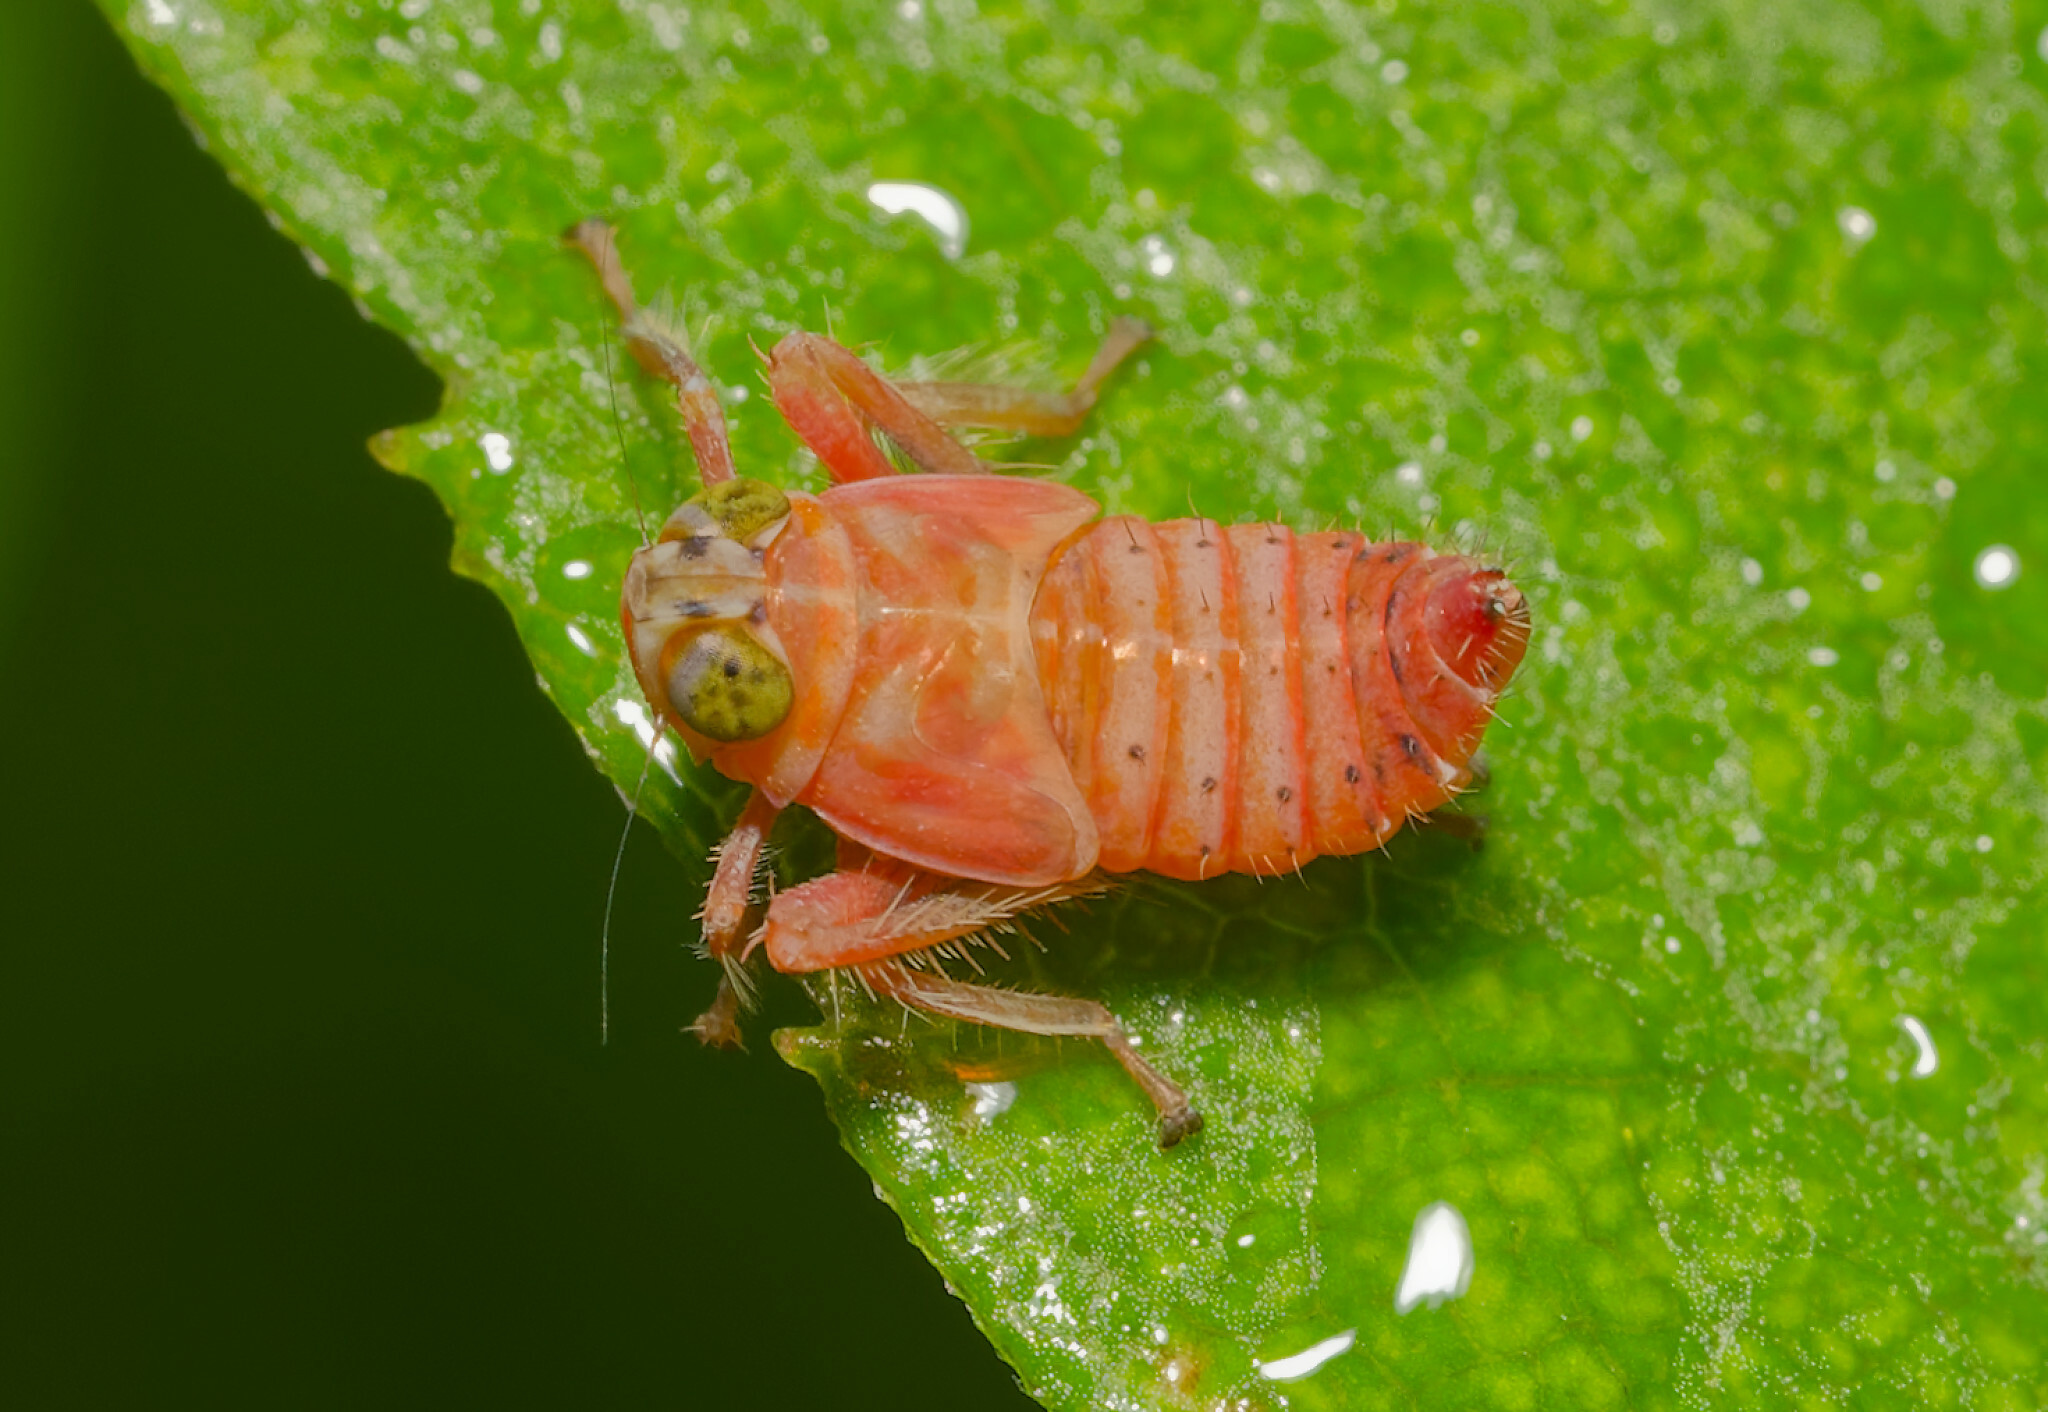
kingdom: Animalia
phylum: Arthropoda
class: Insecta
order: Hemiptera
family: Cicadellidae
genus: Jikradia
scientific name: Jikradia olitoria
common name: Coppery leafhopper
